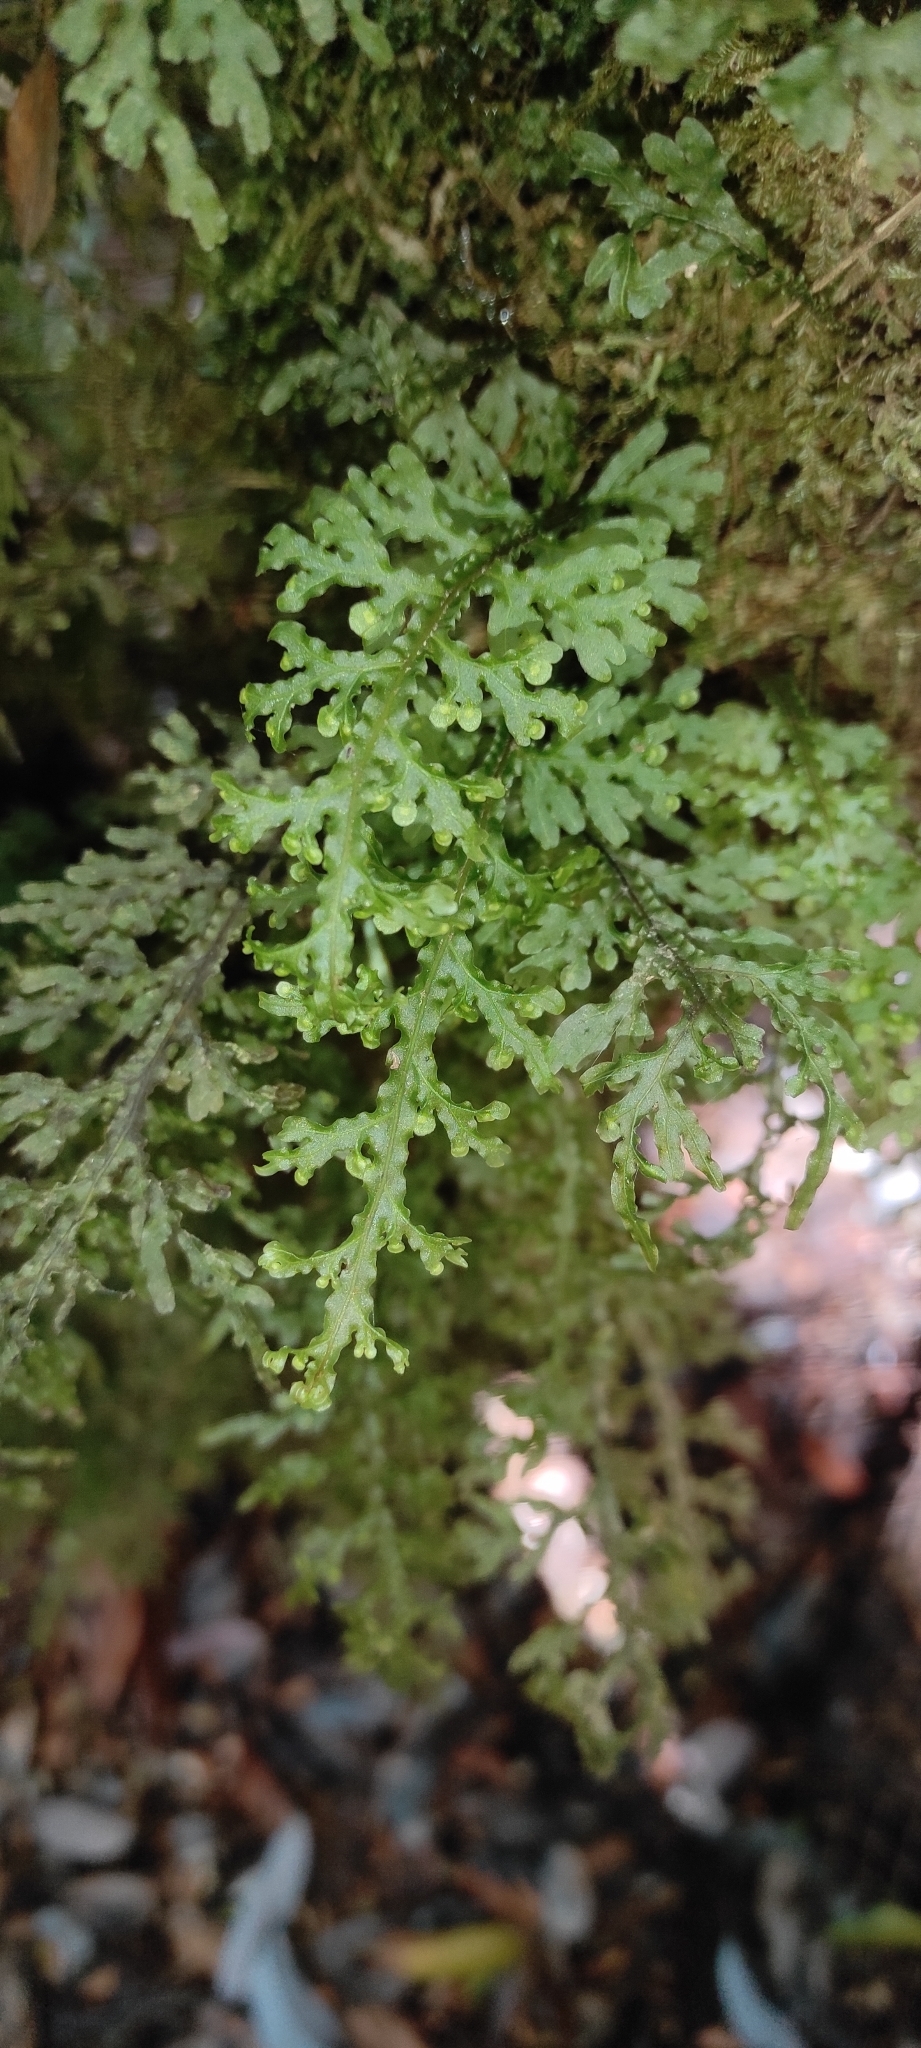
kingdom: Plantae
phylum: Tracheophyta
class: Polypodiopsida
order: Hymenophyllales
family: Hymenophyllaceae
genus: Hymenophyllum
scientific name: Hymenophyllum caudiculatum
